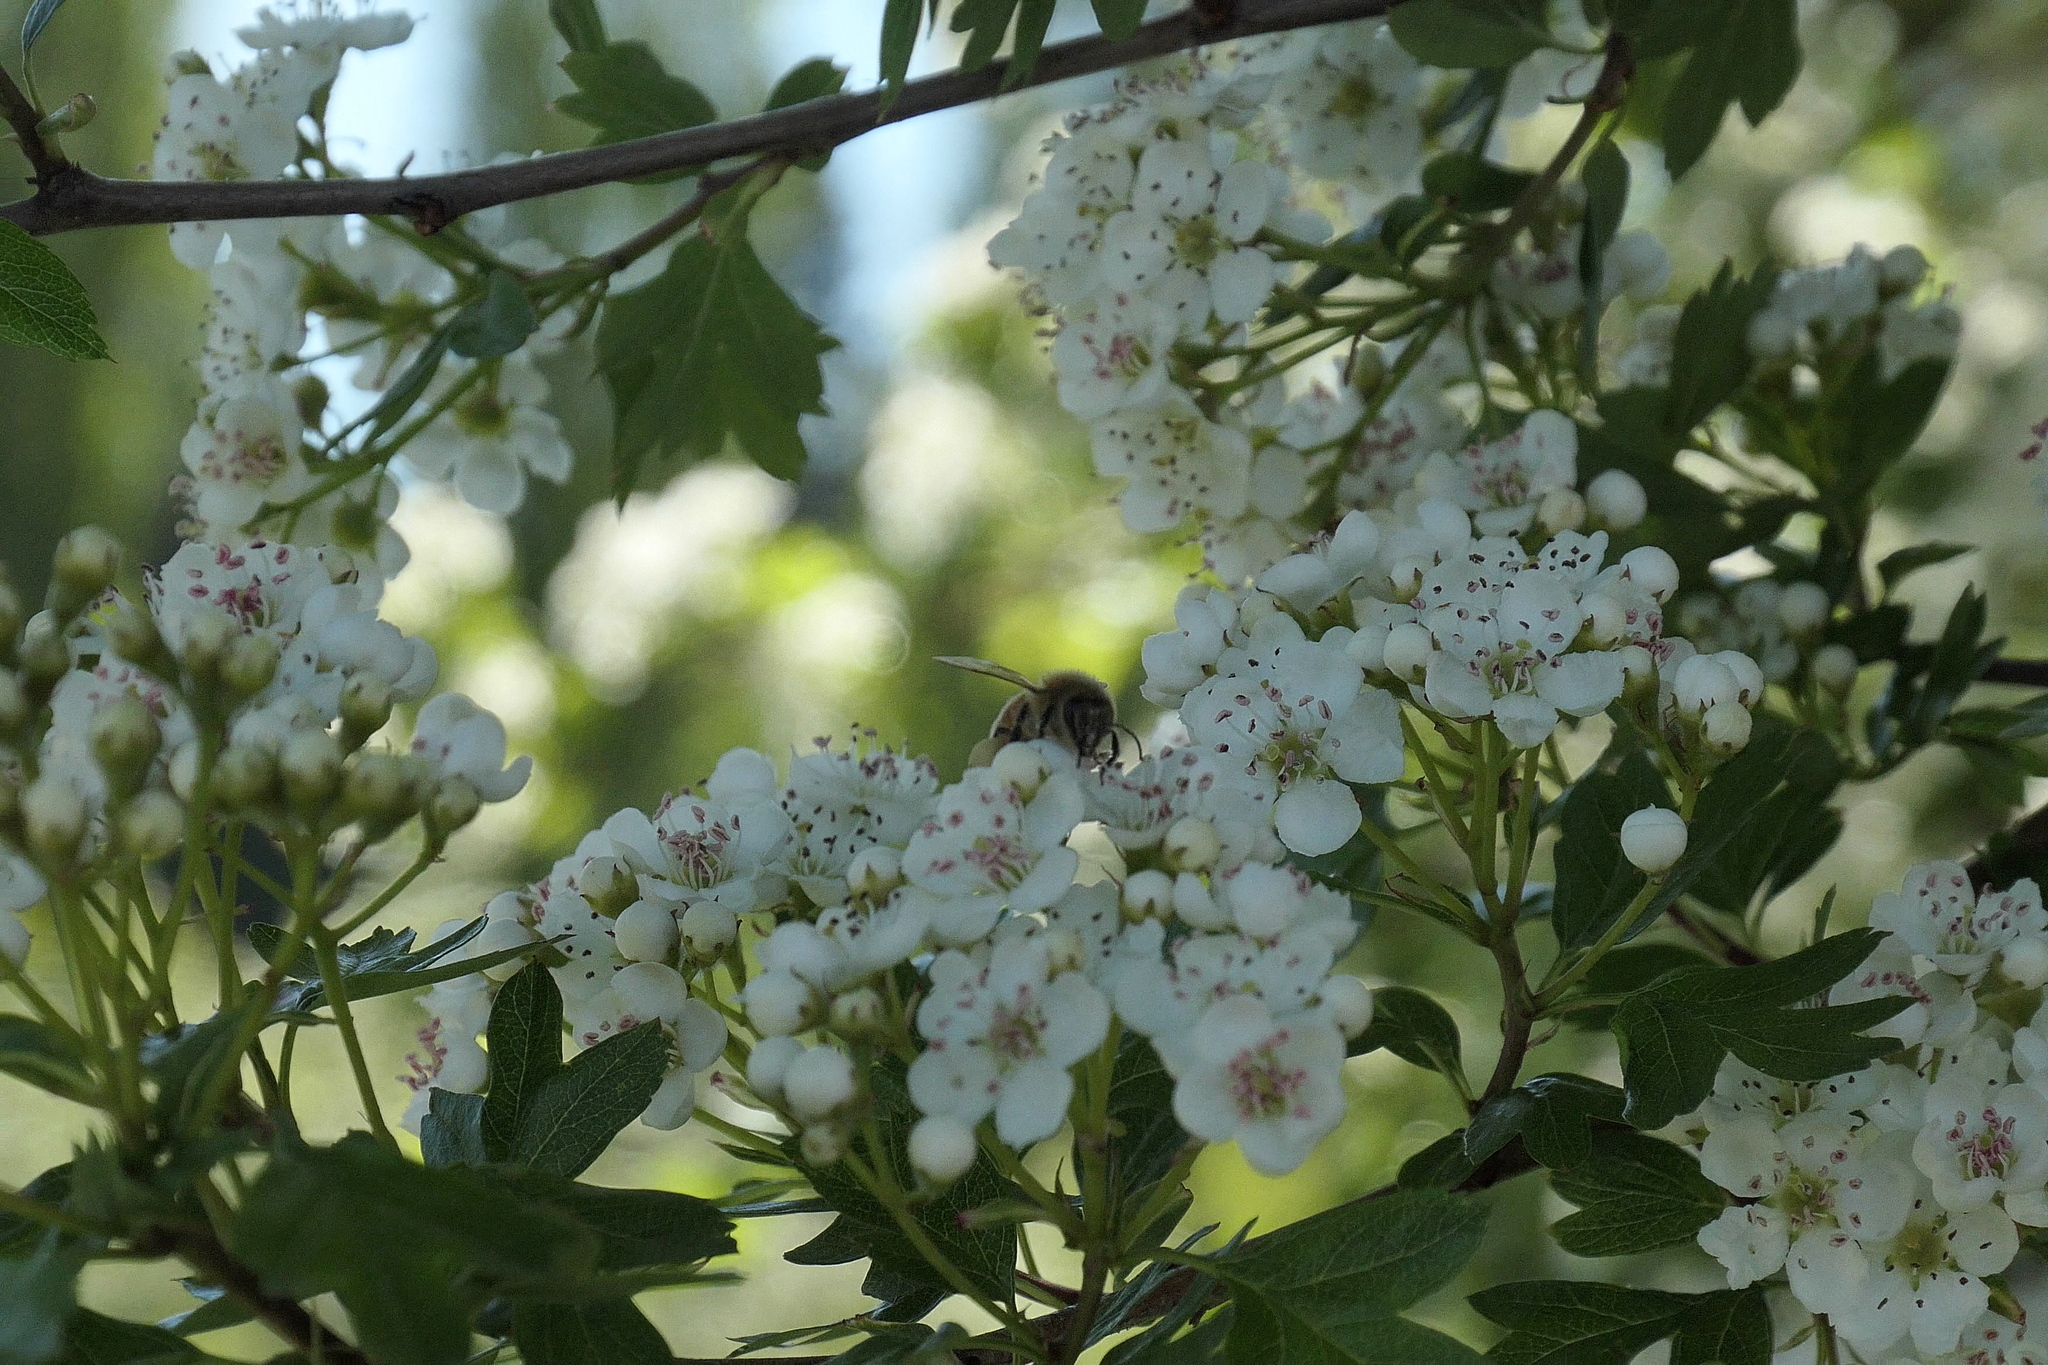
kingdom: Animalia
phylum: Arthropoda
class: Insecta
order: Hymenoptera
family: Apidae
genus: Apis
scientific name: Apis mellifera
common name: Honey bee
